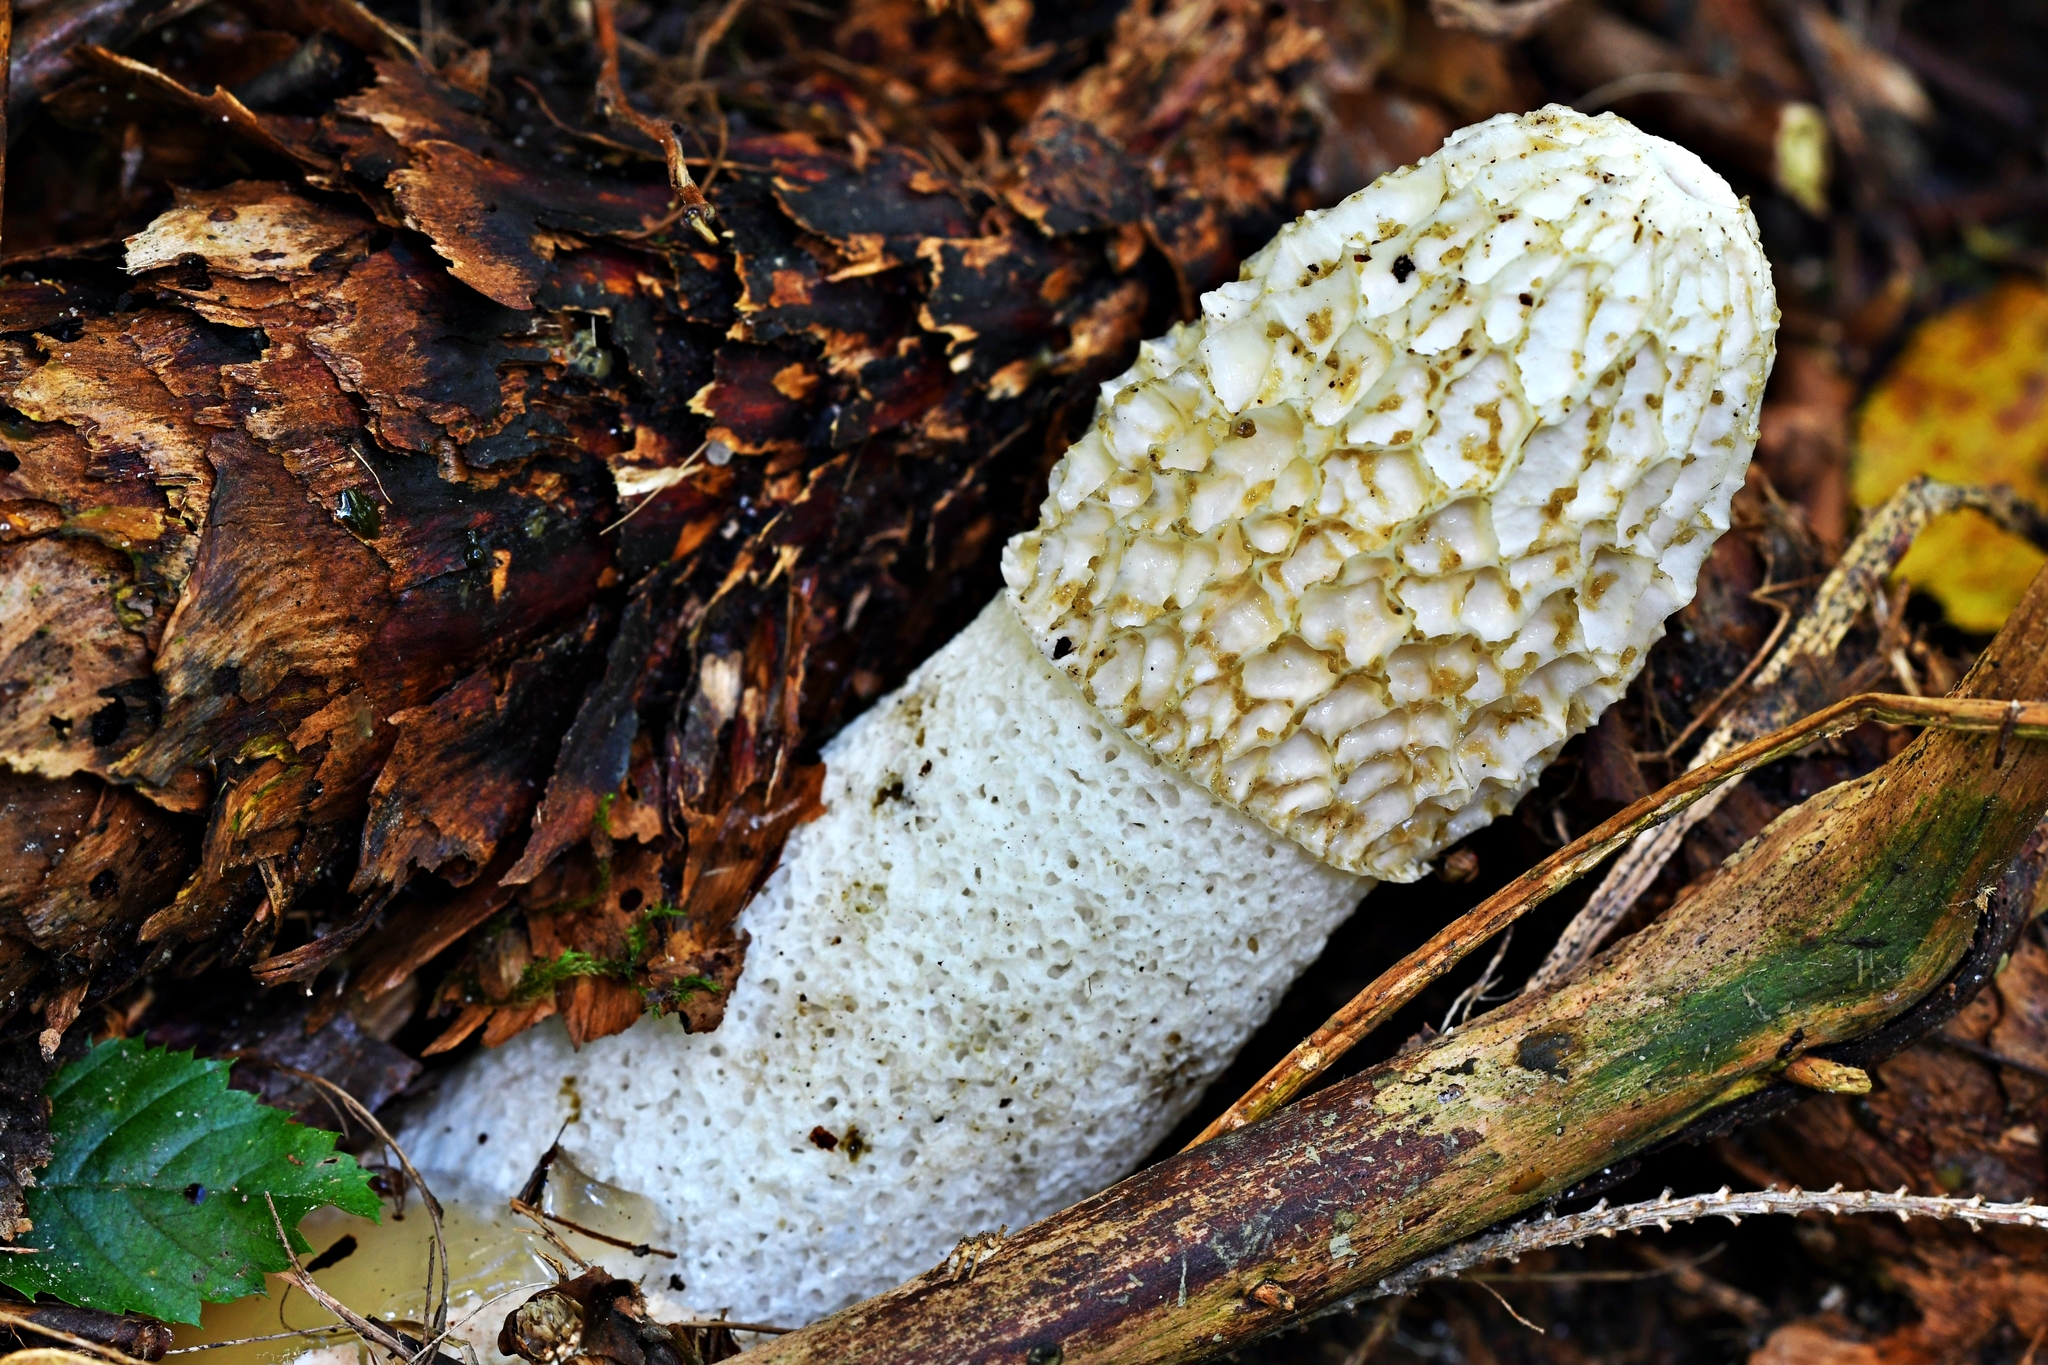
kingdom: Fungi
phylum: Basidiomycota
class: Agaricomycetes
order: Phallales
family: Phallaceae
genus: Phallus
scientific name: Phallus impudicus
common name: Common stinkhorn
